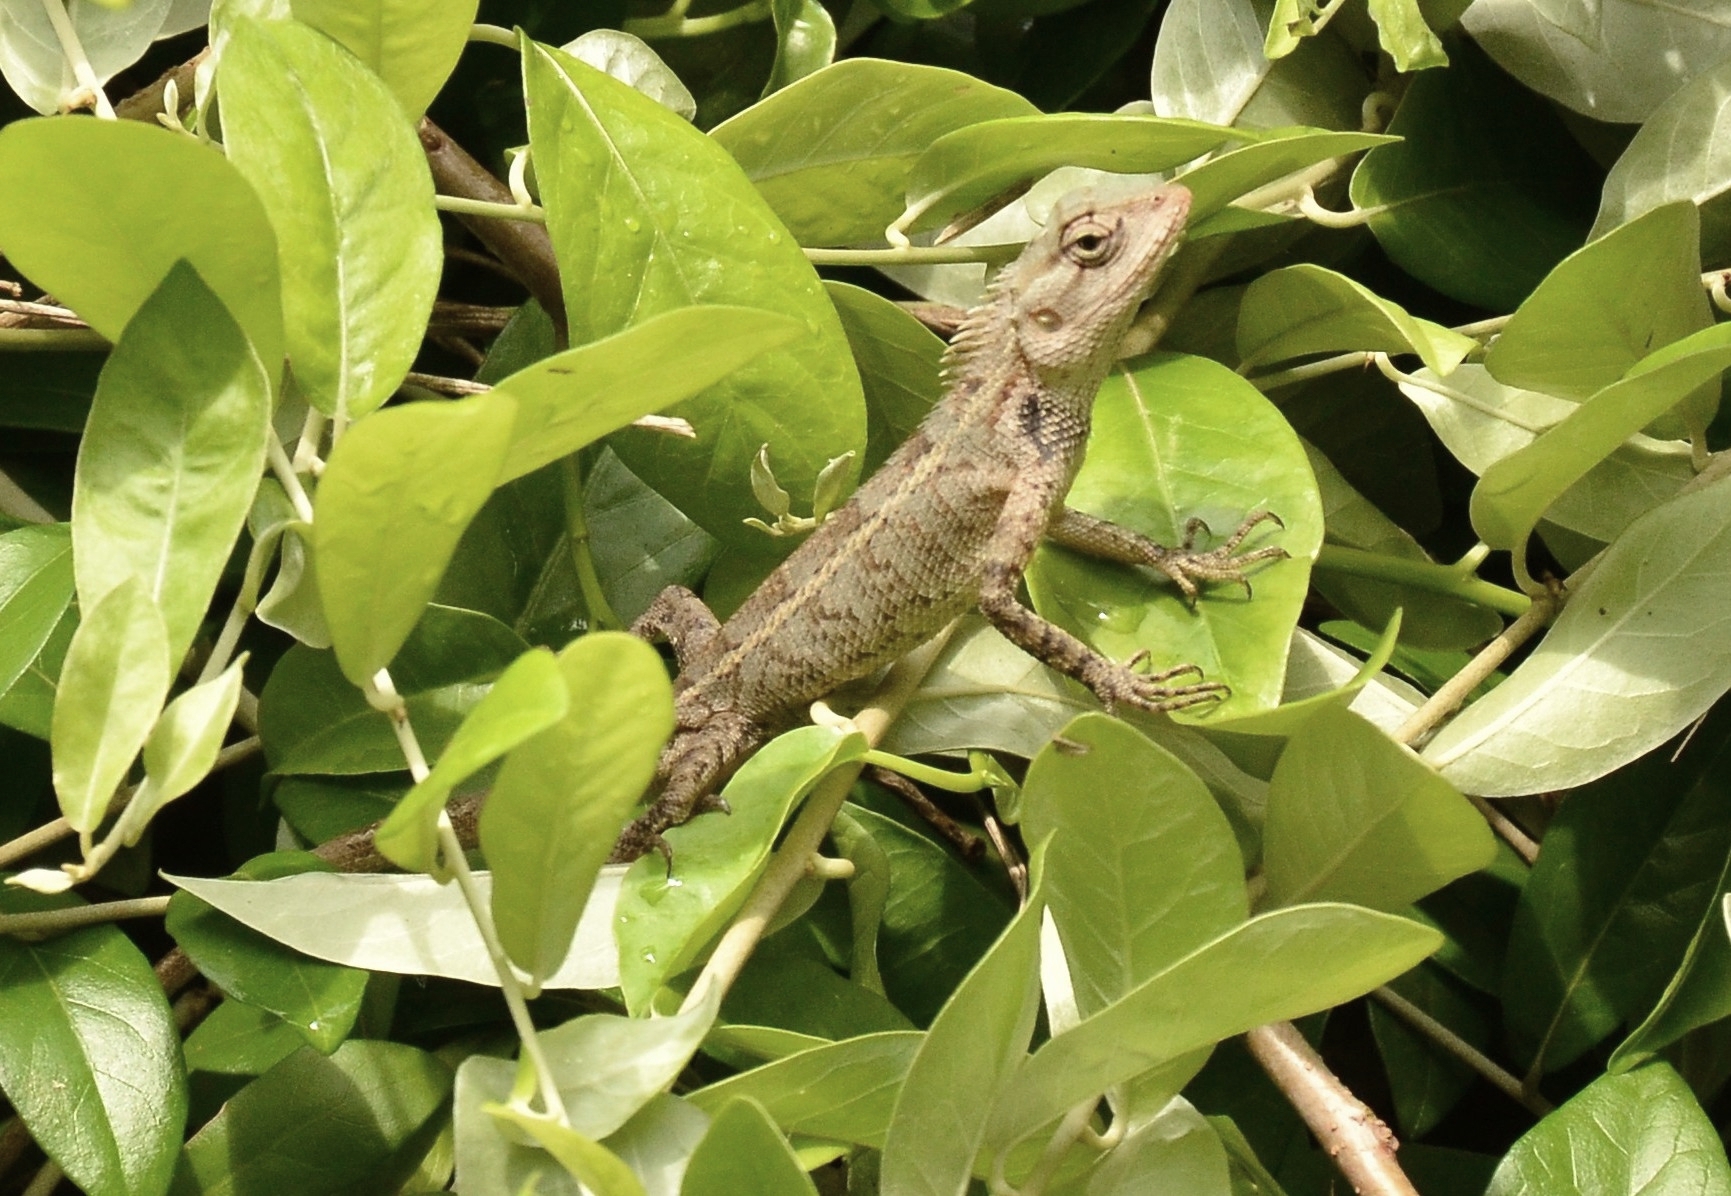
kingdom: Animalia
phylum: Chordata
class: Squamata
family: Agamidae
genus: Calotes
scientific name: Calotes versicolor
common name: Oriental garden lizard
